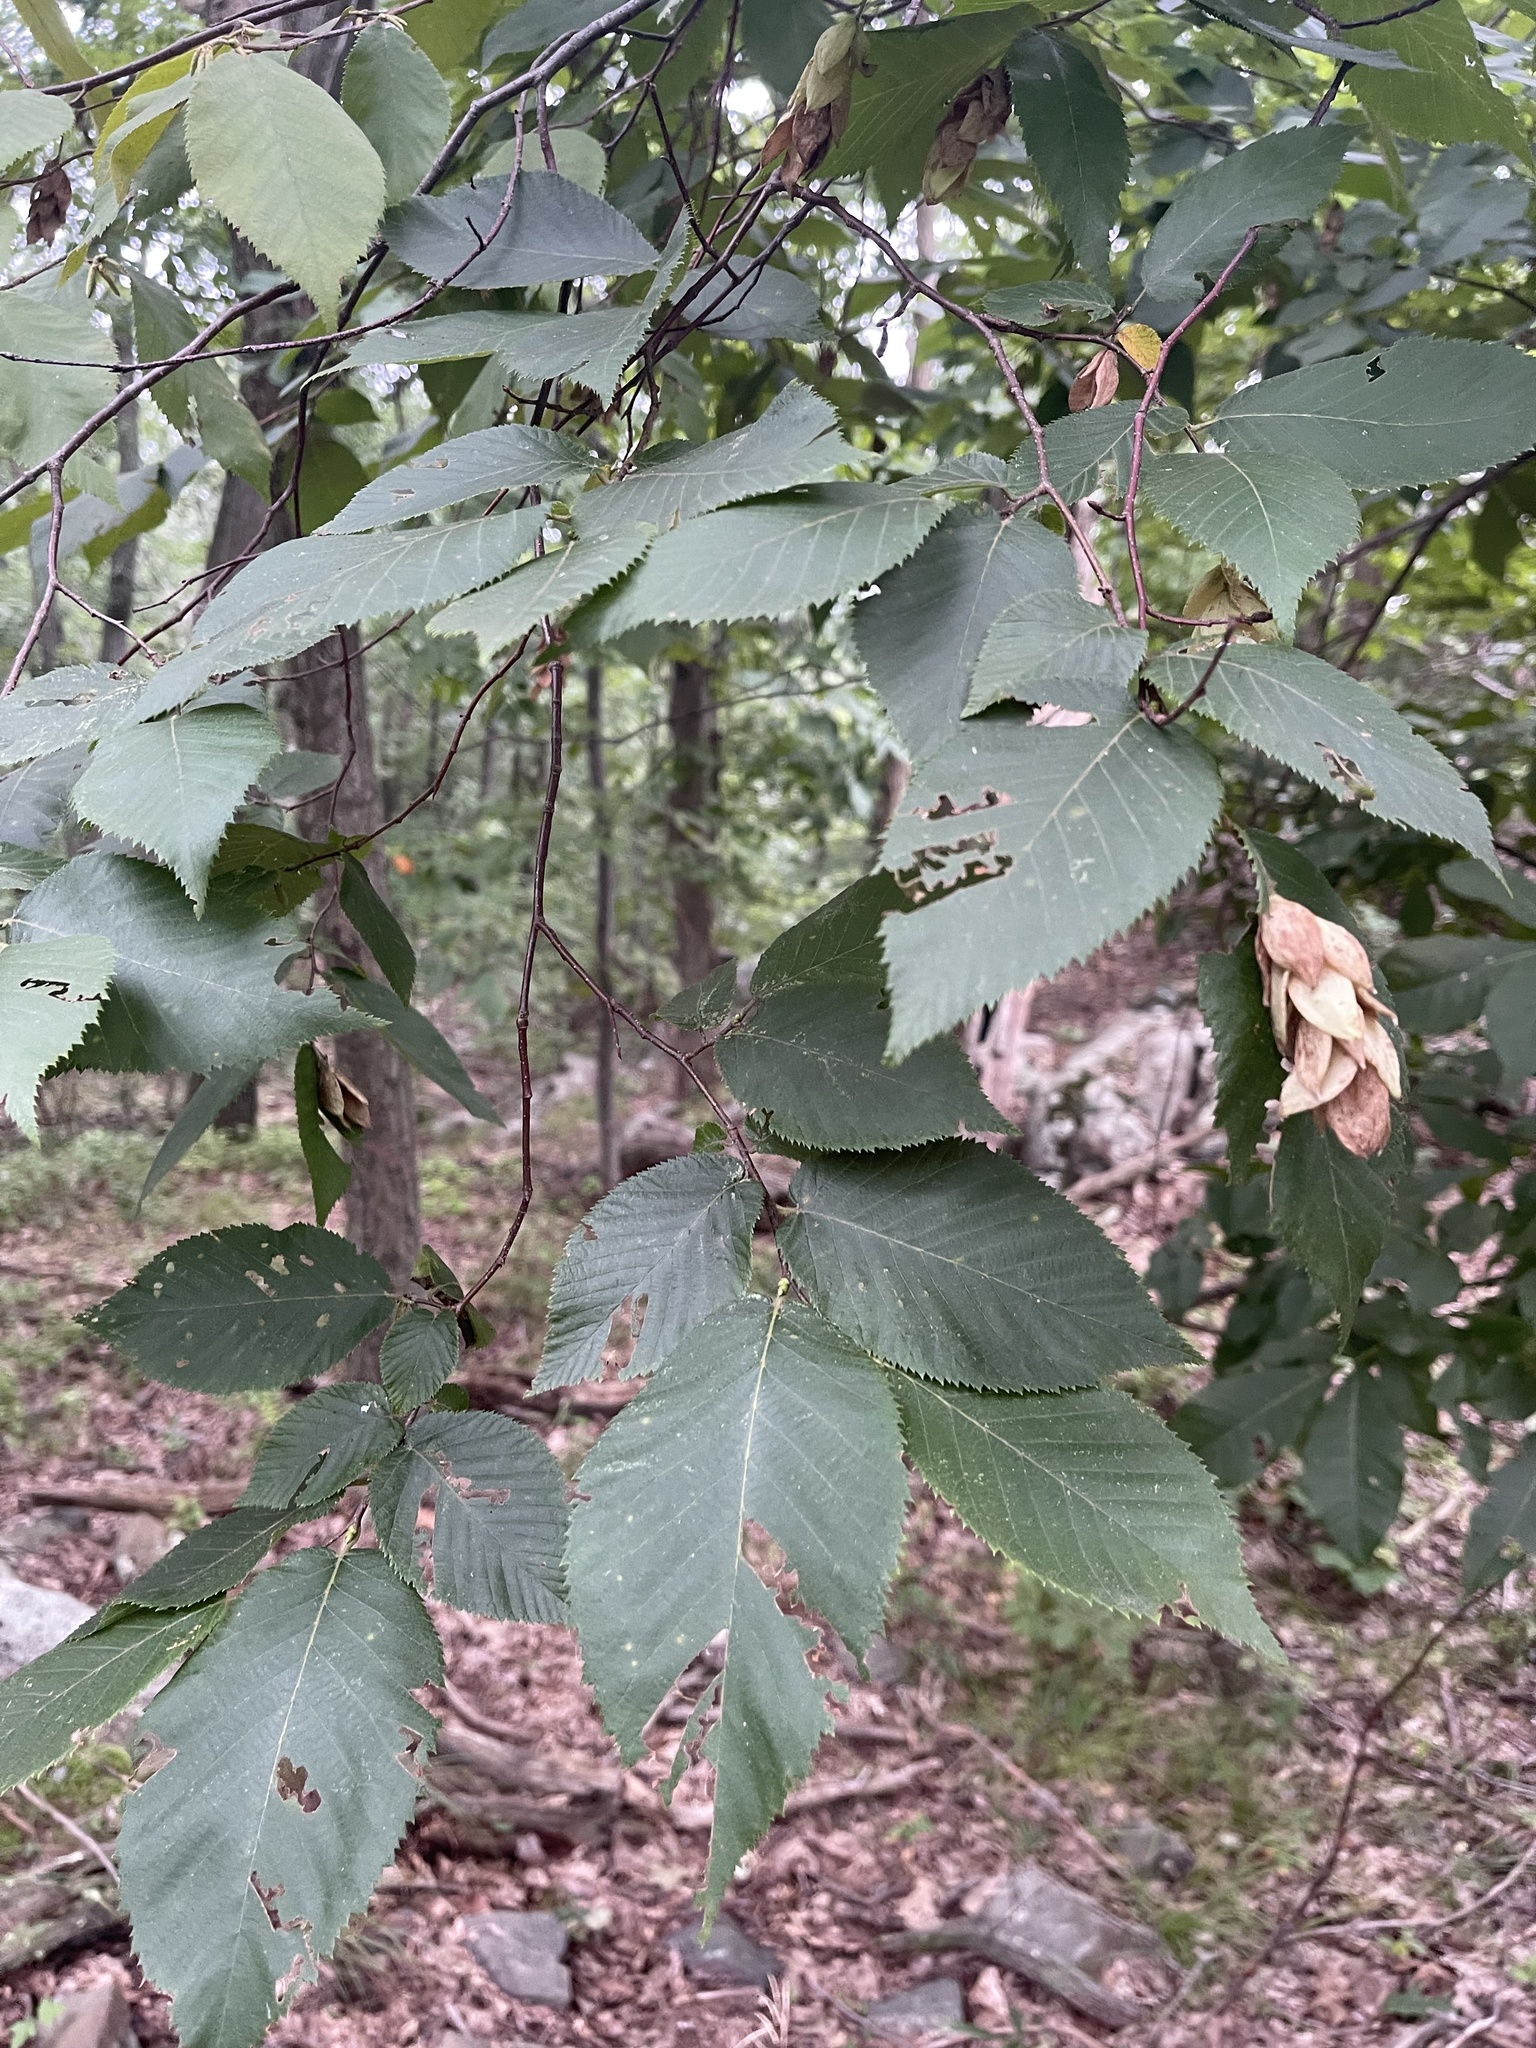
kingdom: Plantae
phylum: Tracheophyta
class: Magnoliopsida
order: Fagales
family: Betulaceae
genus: Ostrya
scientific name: Ostrya virginiana
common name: Ironwood
